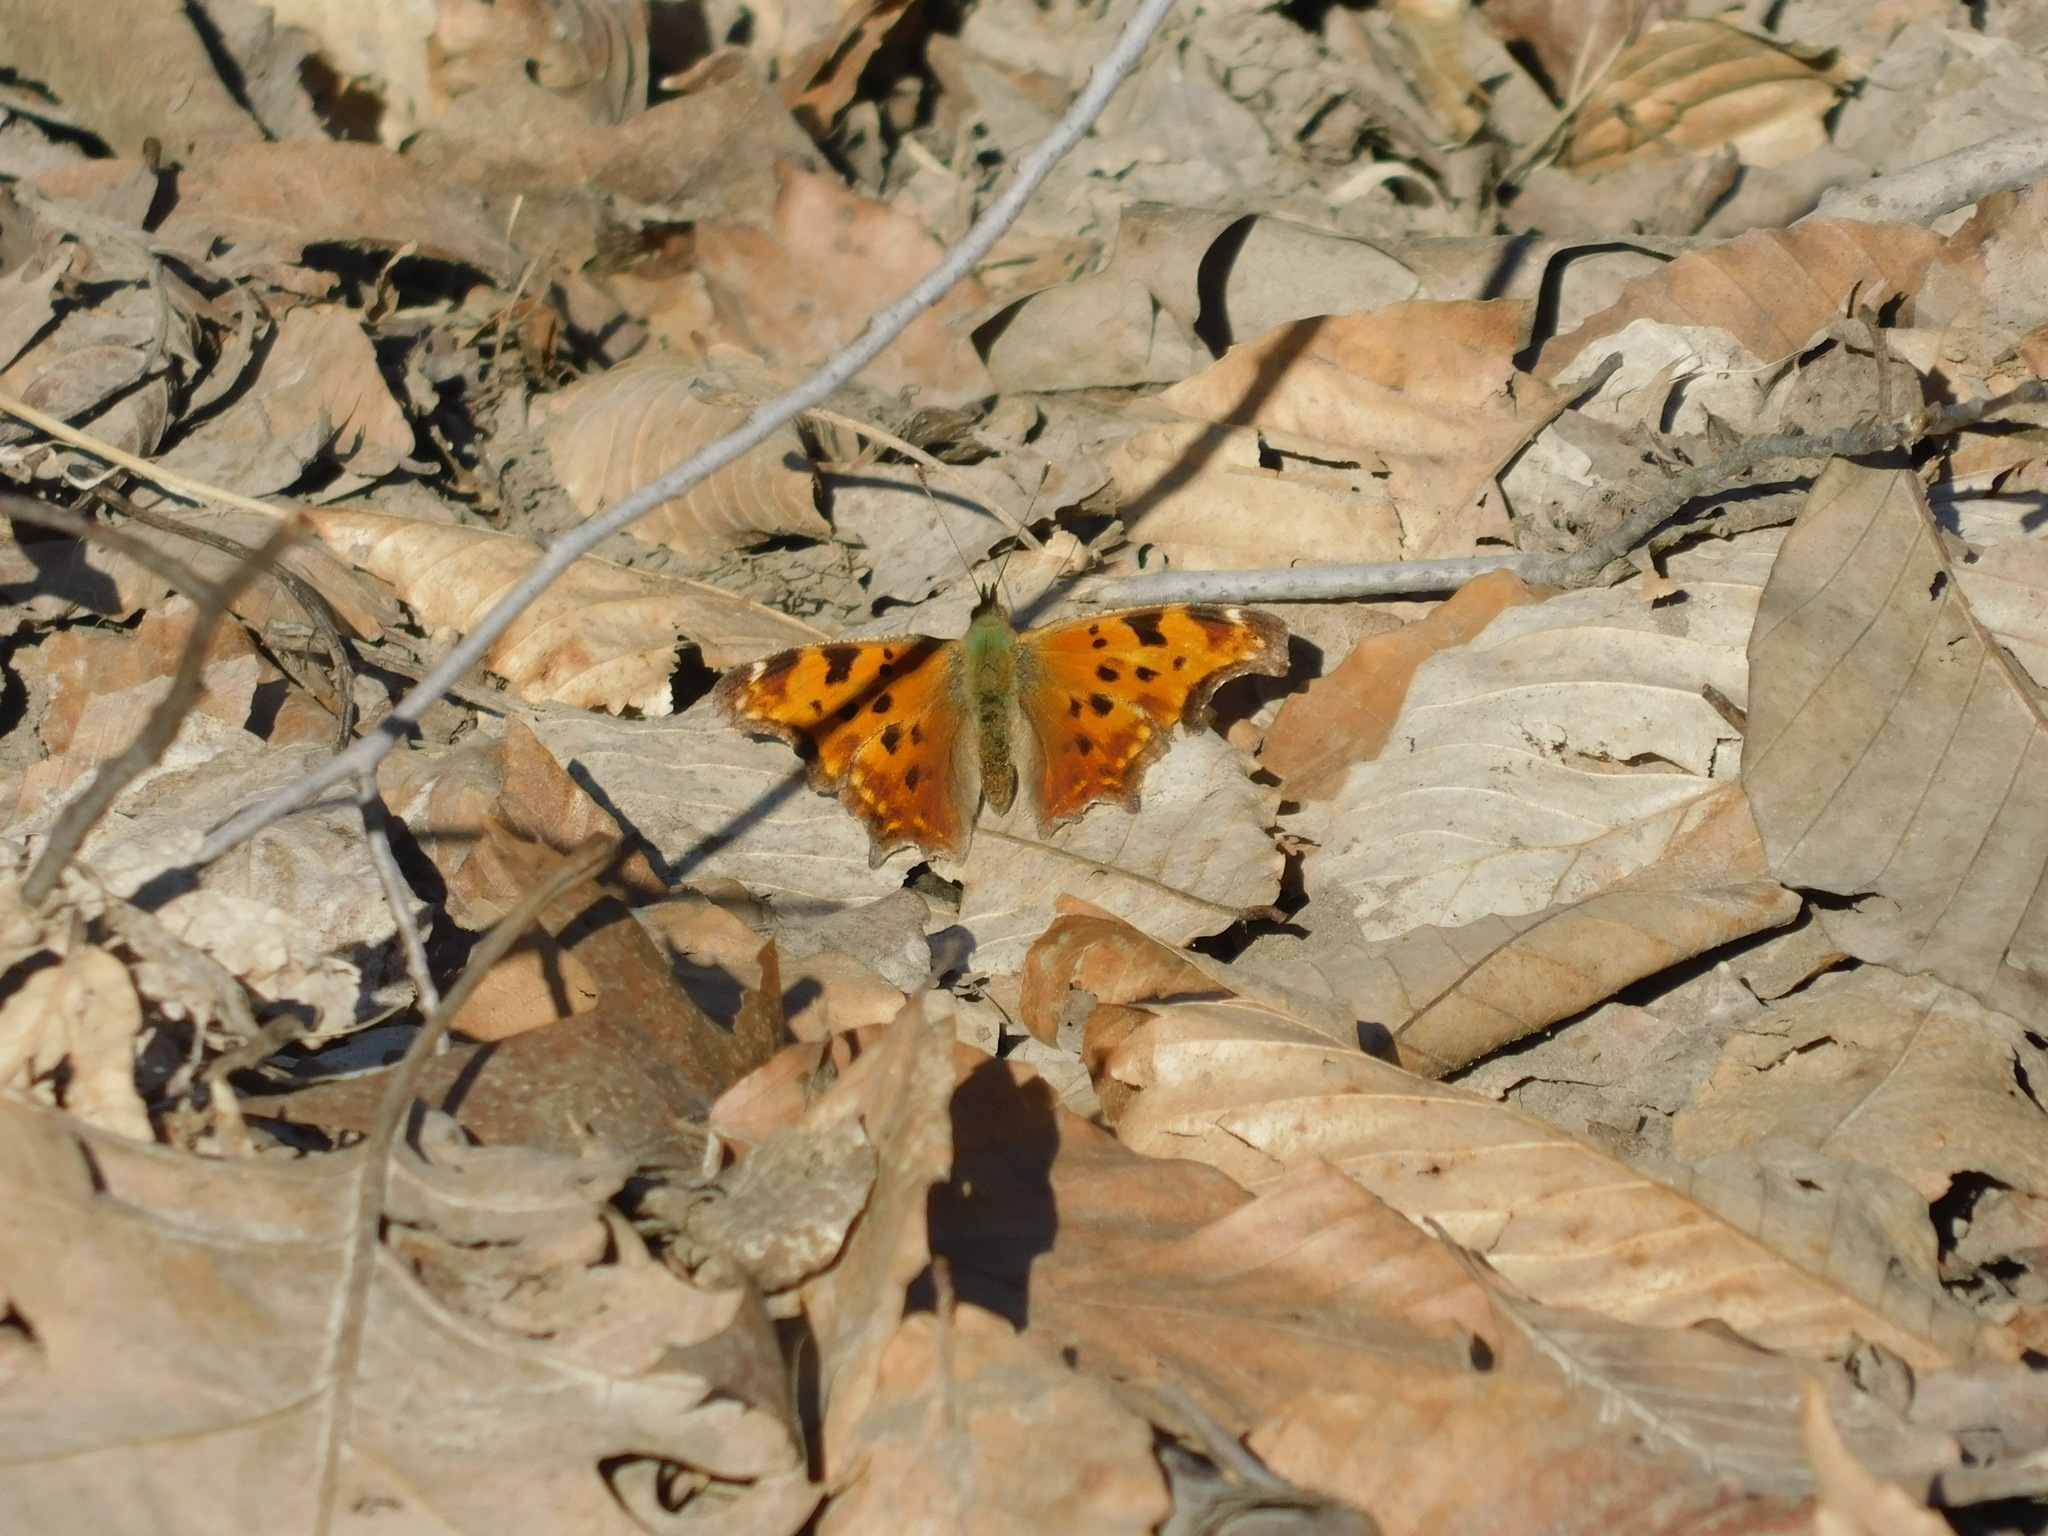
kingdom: Animalia
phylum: Arthropoda
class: Insecta
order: Lepidoptera
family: Nymphalidae
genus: Polygonia
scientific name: Polygonia comma
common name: Eastern comma
